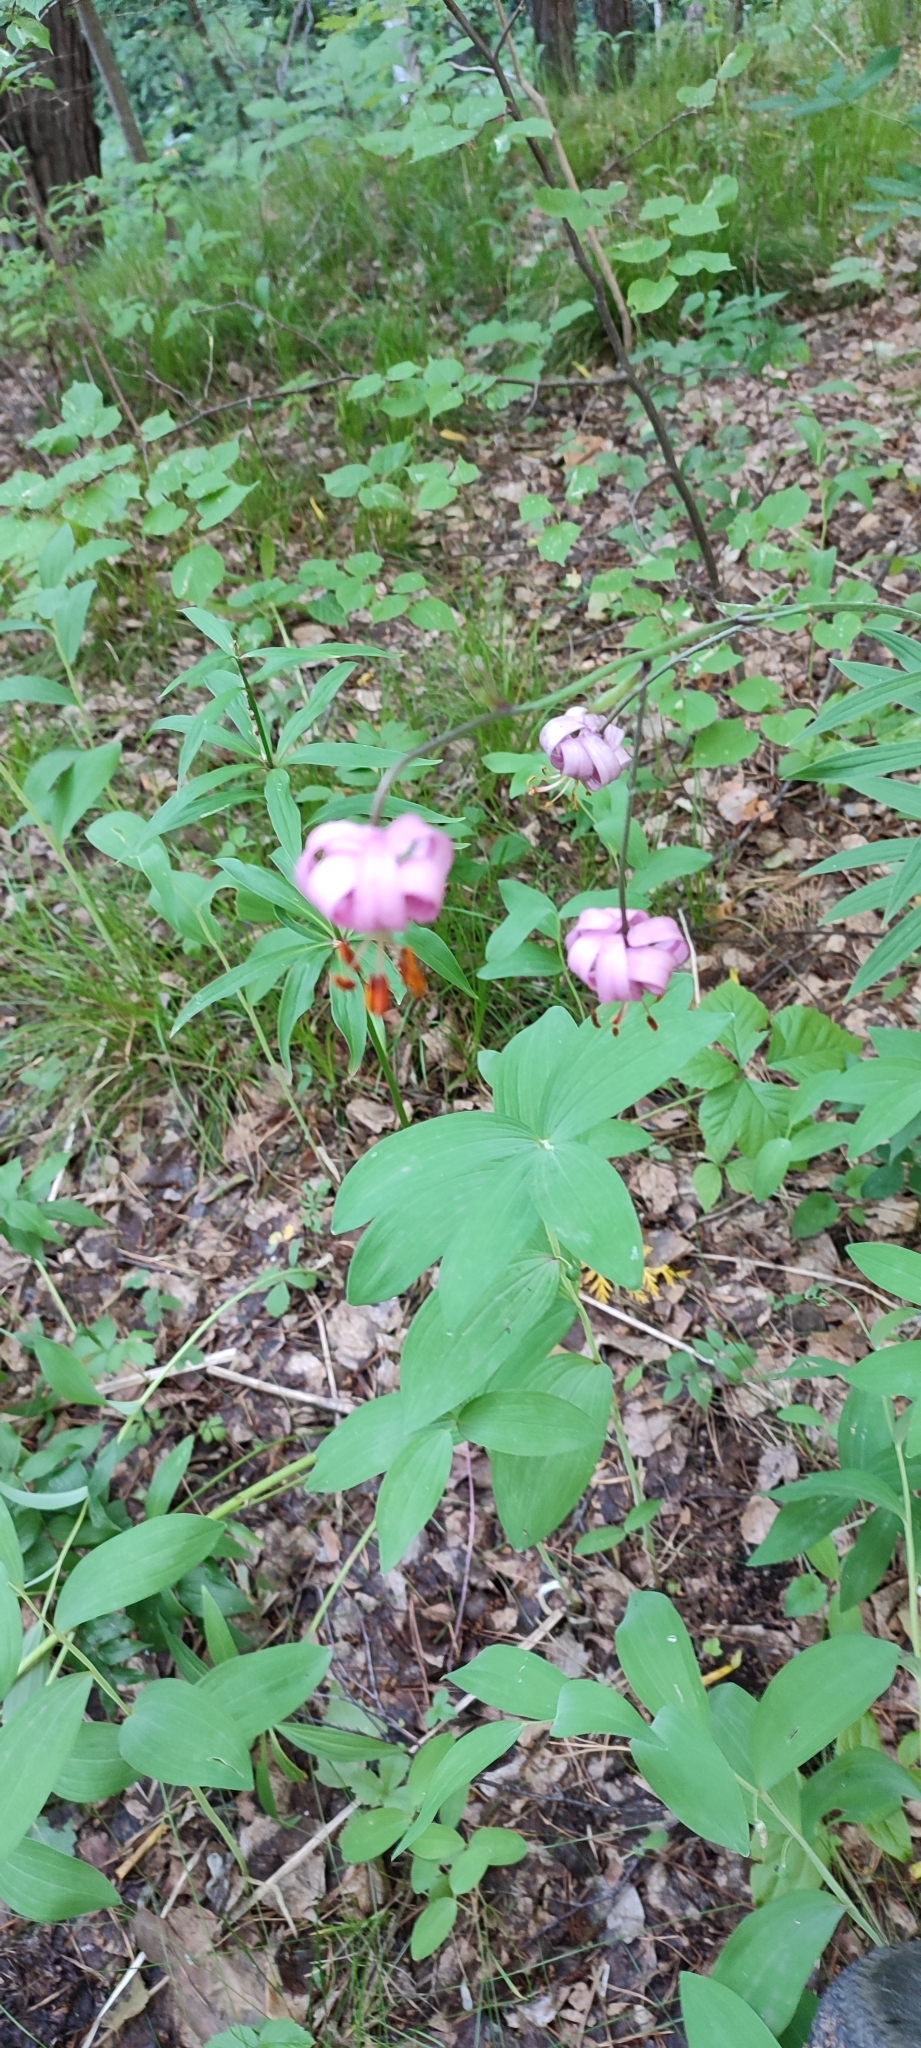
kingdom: Plantae
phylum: Tracheophyta
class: Liliopsida
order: Liliales
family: Liliaceae
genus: Lilium
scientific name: Lilium martagon
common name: Martagon lily
